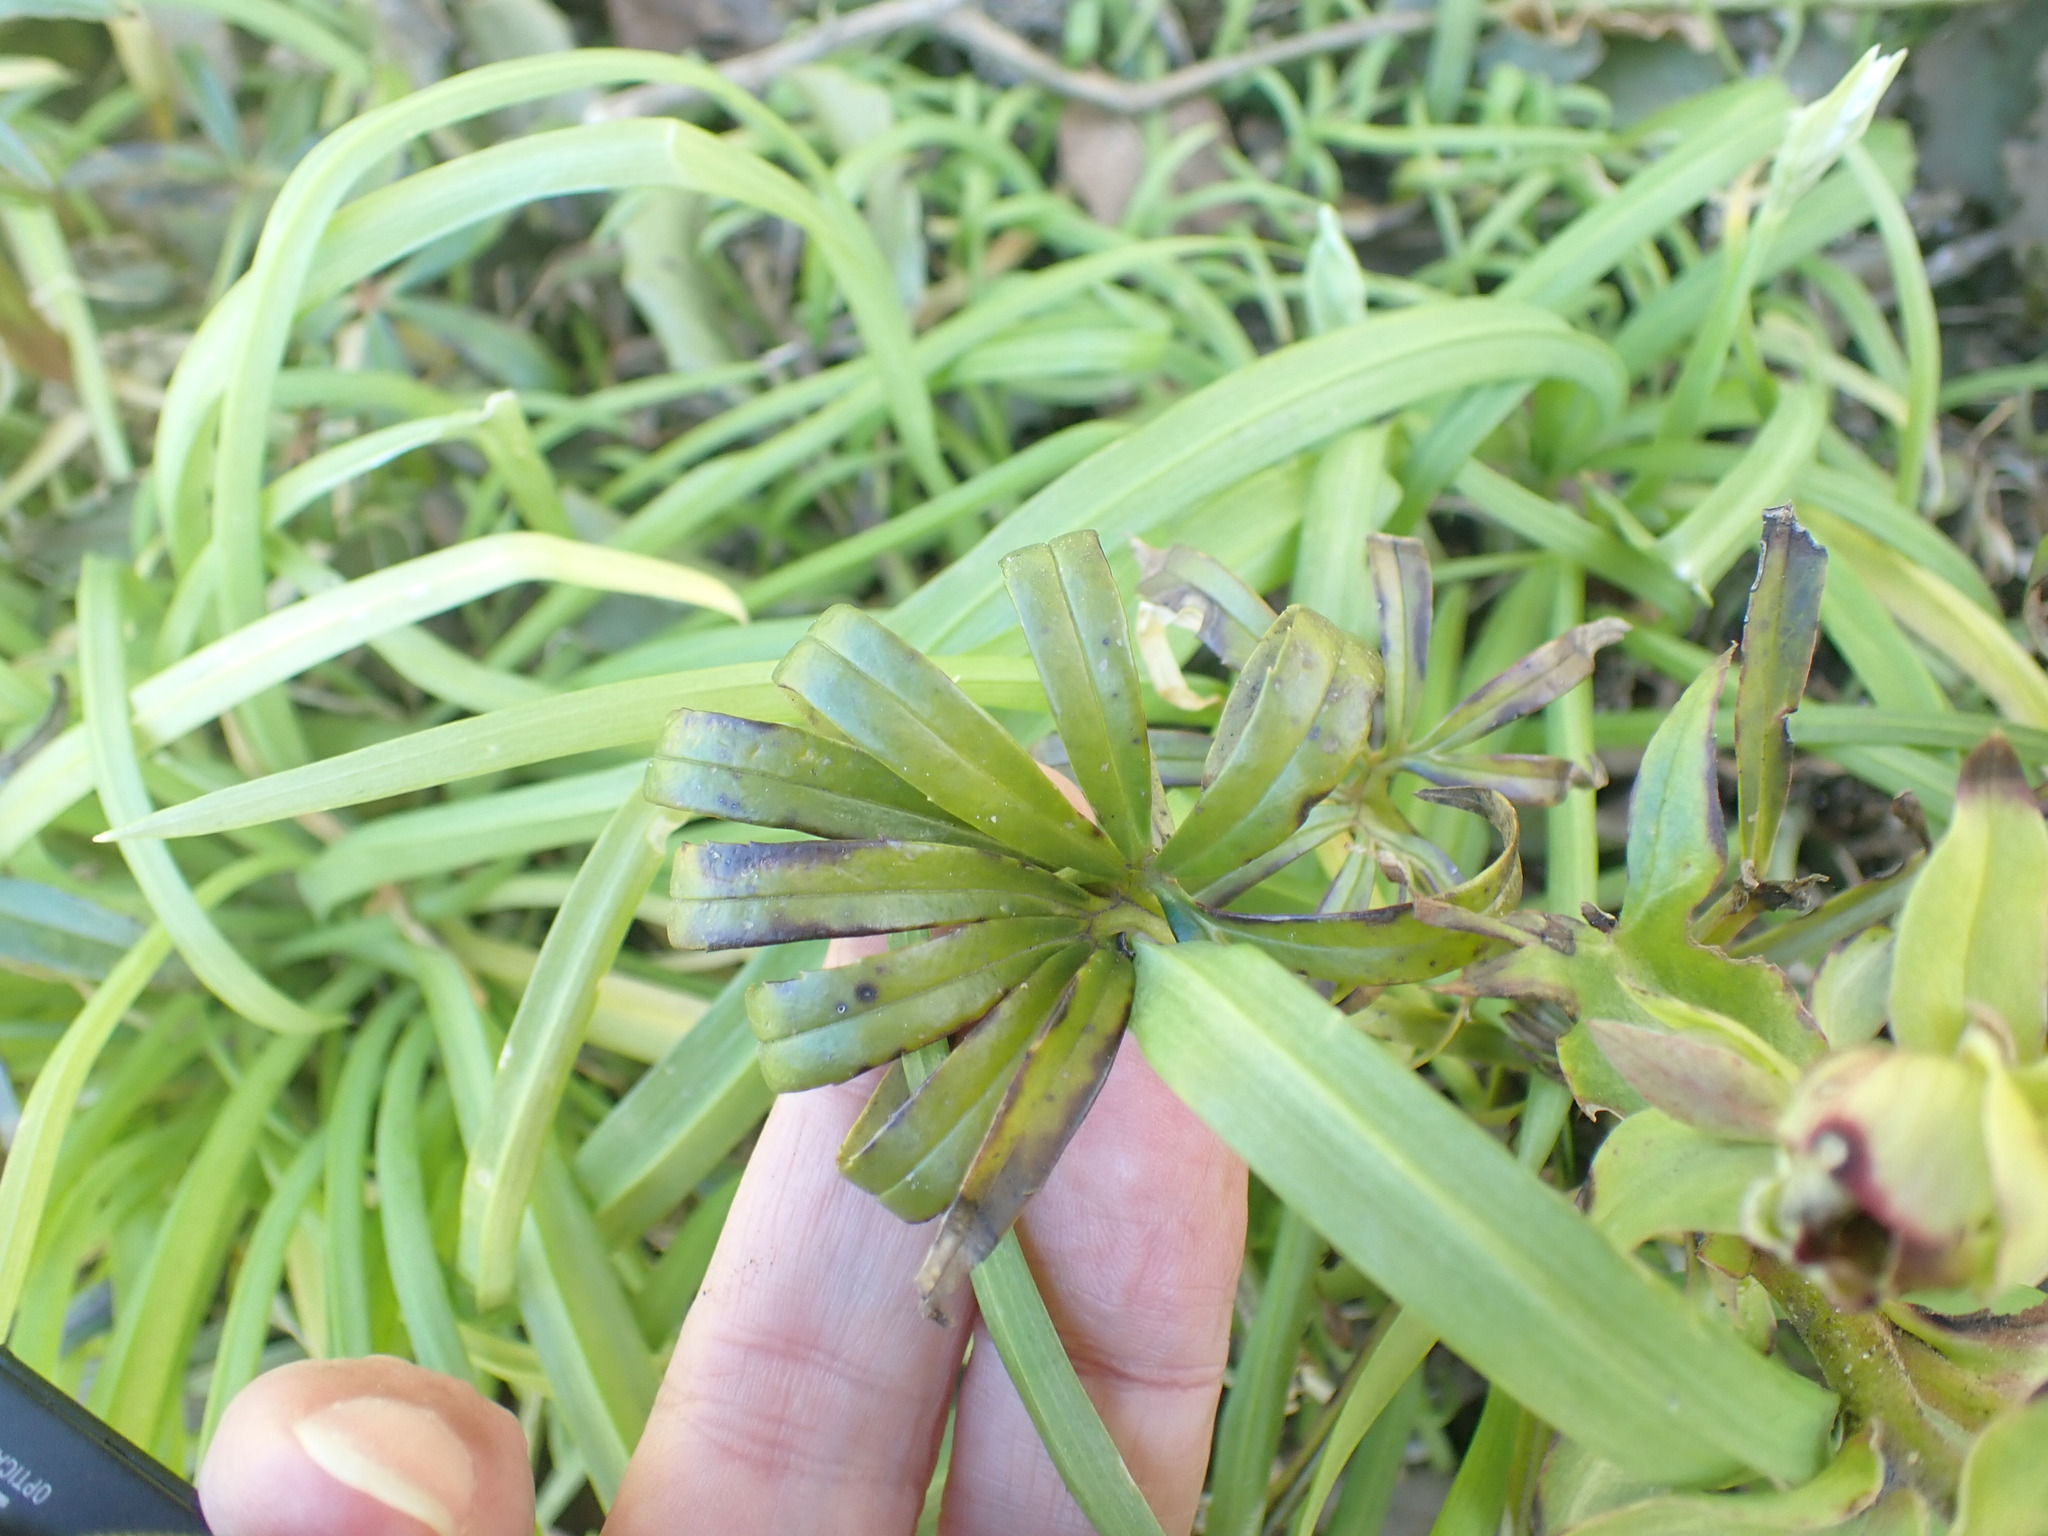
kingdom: Plantae
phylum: Tracheophyta
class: Magnoliopsida
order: Ranunculales
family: Ranunculaceae
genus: Helleborus
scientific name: Helleborus foetidus
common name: Stinking hellebore
